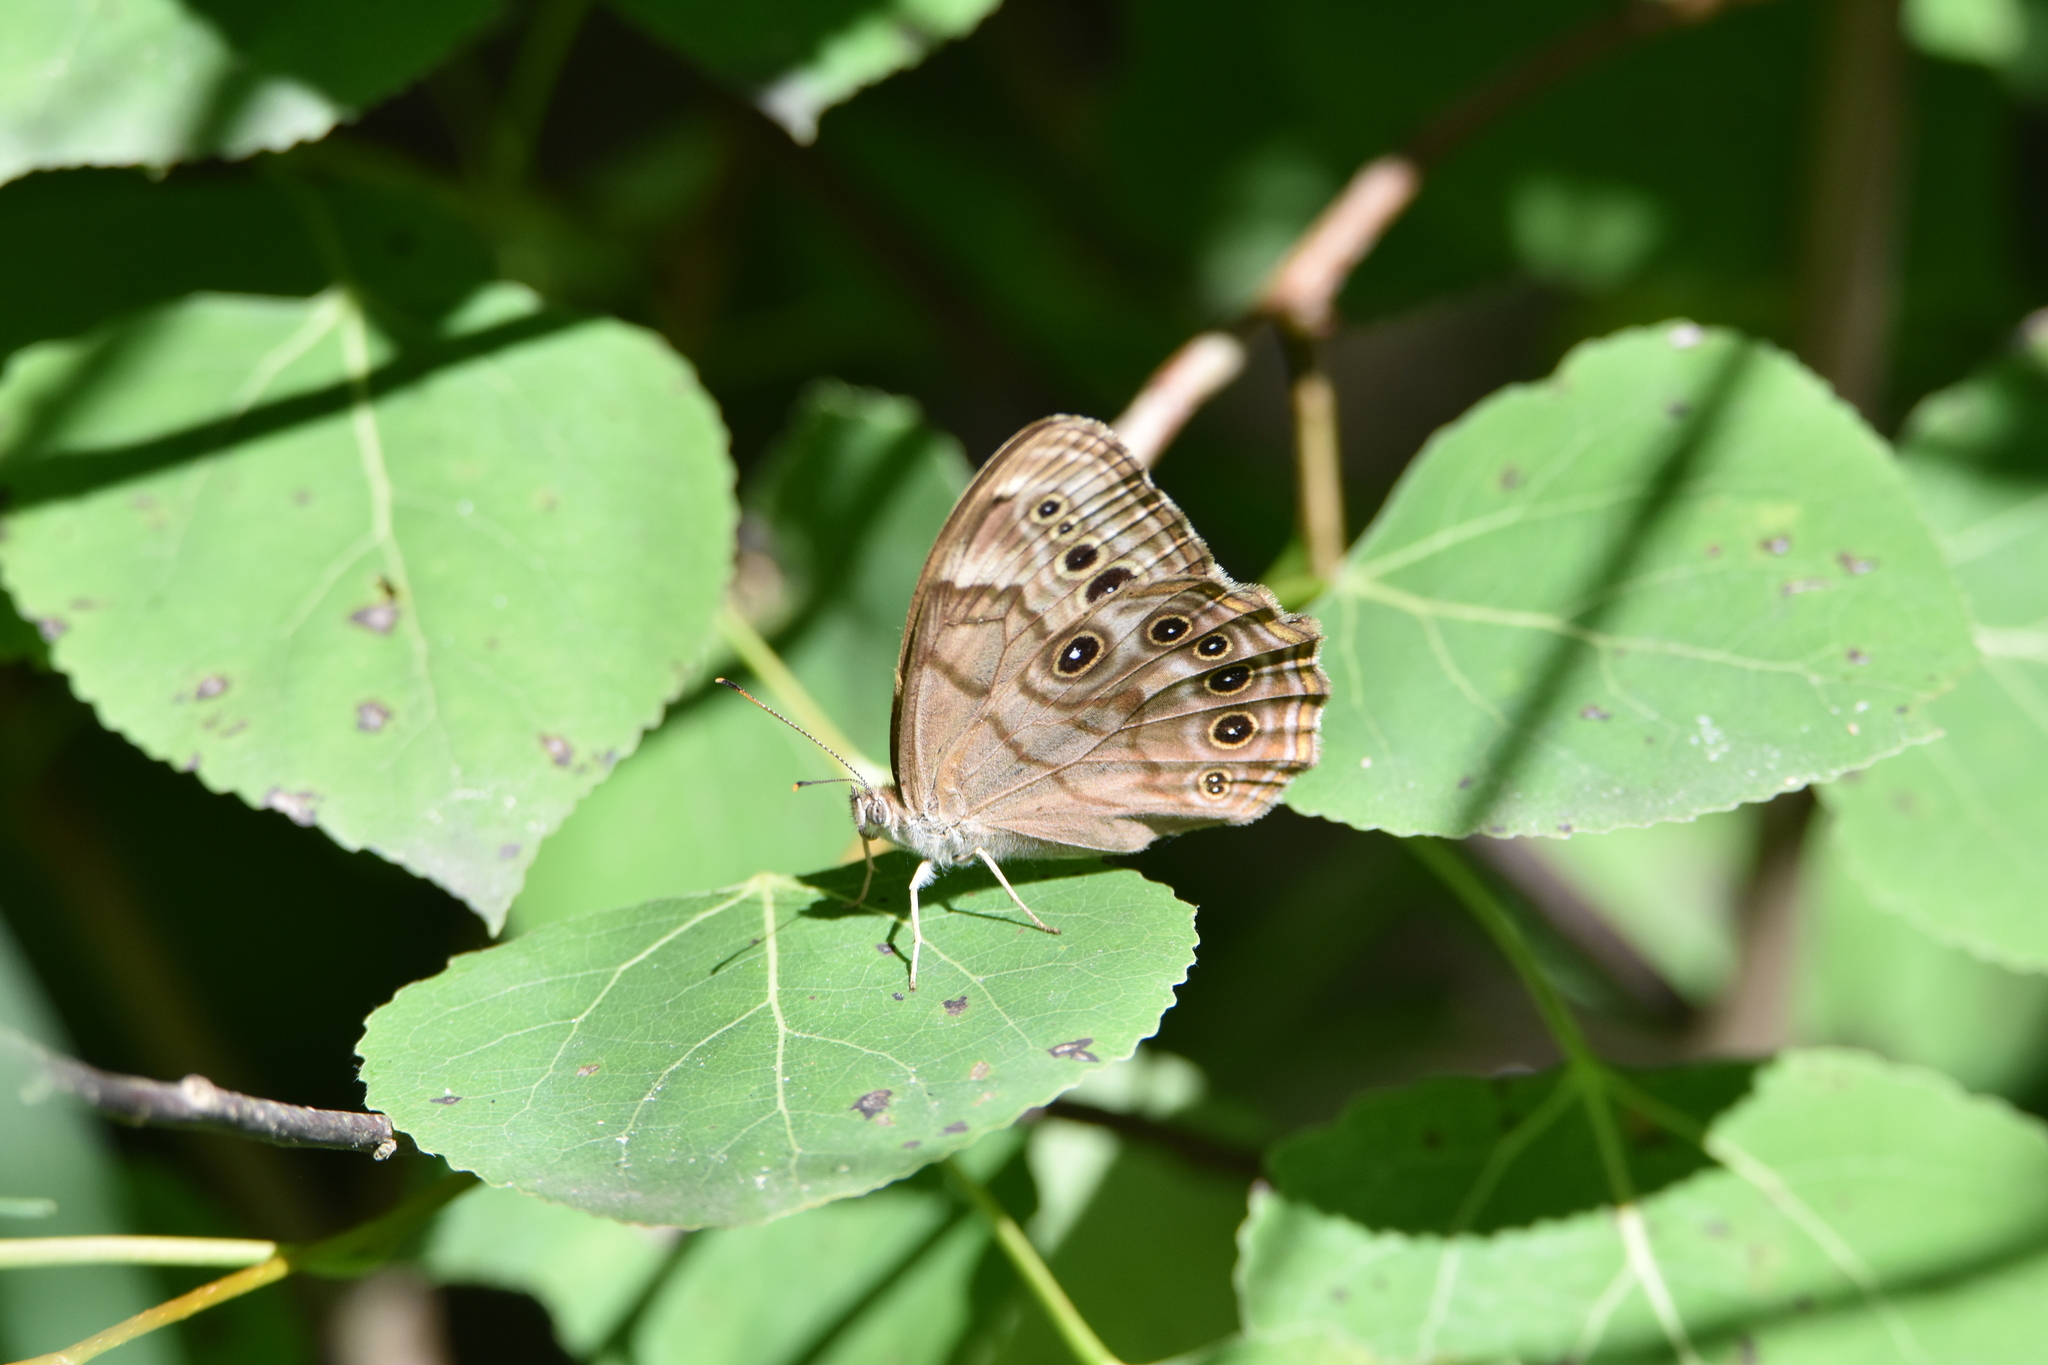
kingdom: Animalia
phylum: Arthropoda
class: Insecta
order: Lepidoptera
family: Nymphalidae
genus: Lethe
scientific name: Lethe anthedon
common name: Northern pearly-eye
